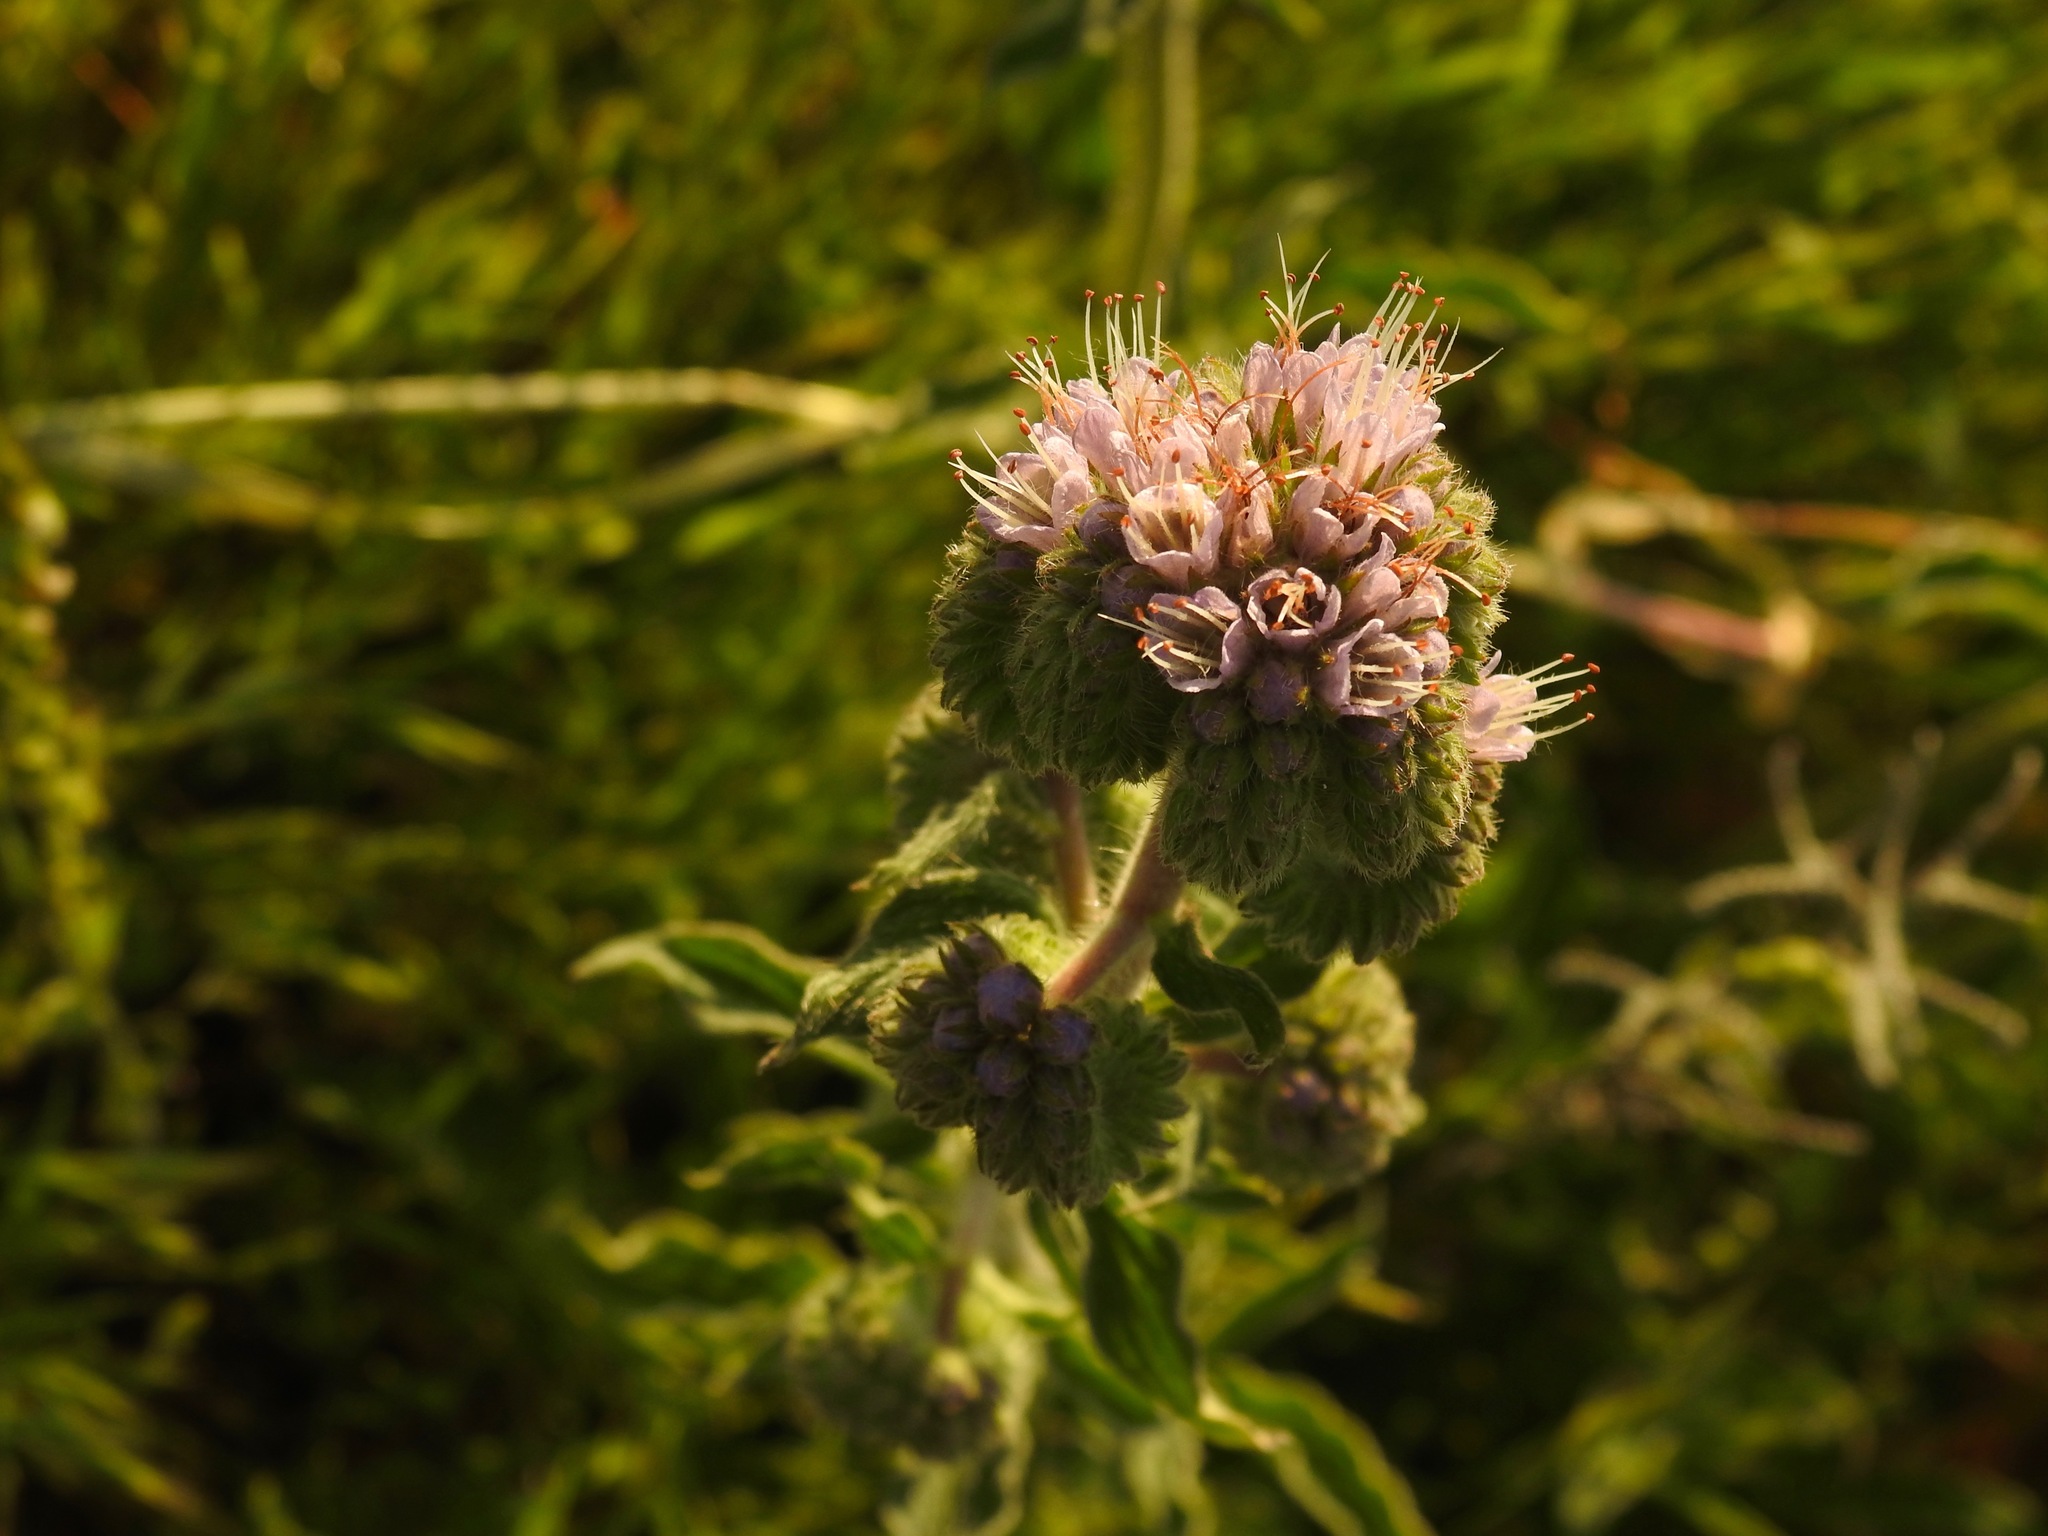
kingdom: Plantae
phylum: Tracheophyta
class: Magnoliopsida
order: Boraginales
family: Hydrophyllaceae
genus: Phacelia
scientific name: Phacelia californica
